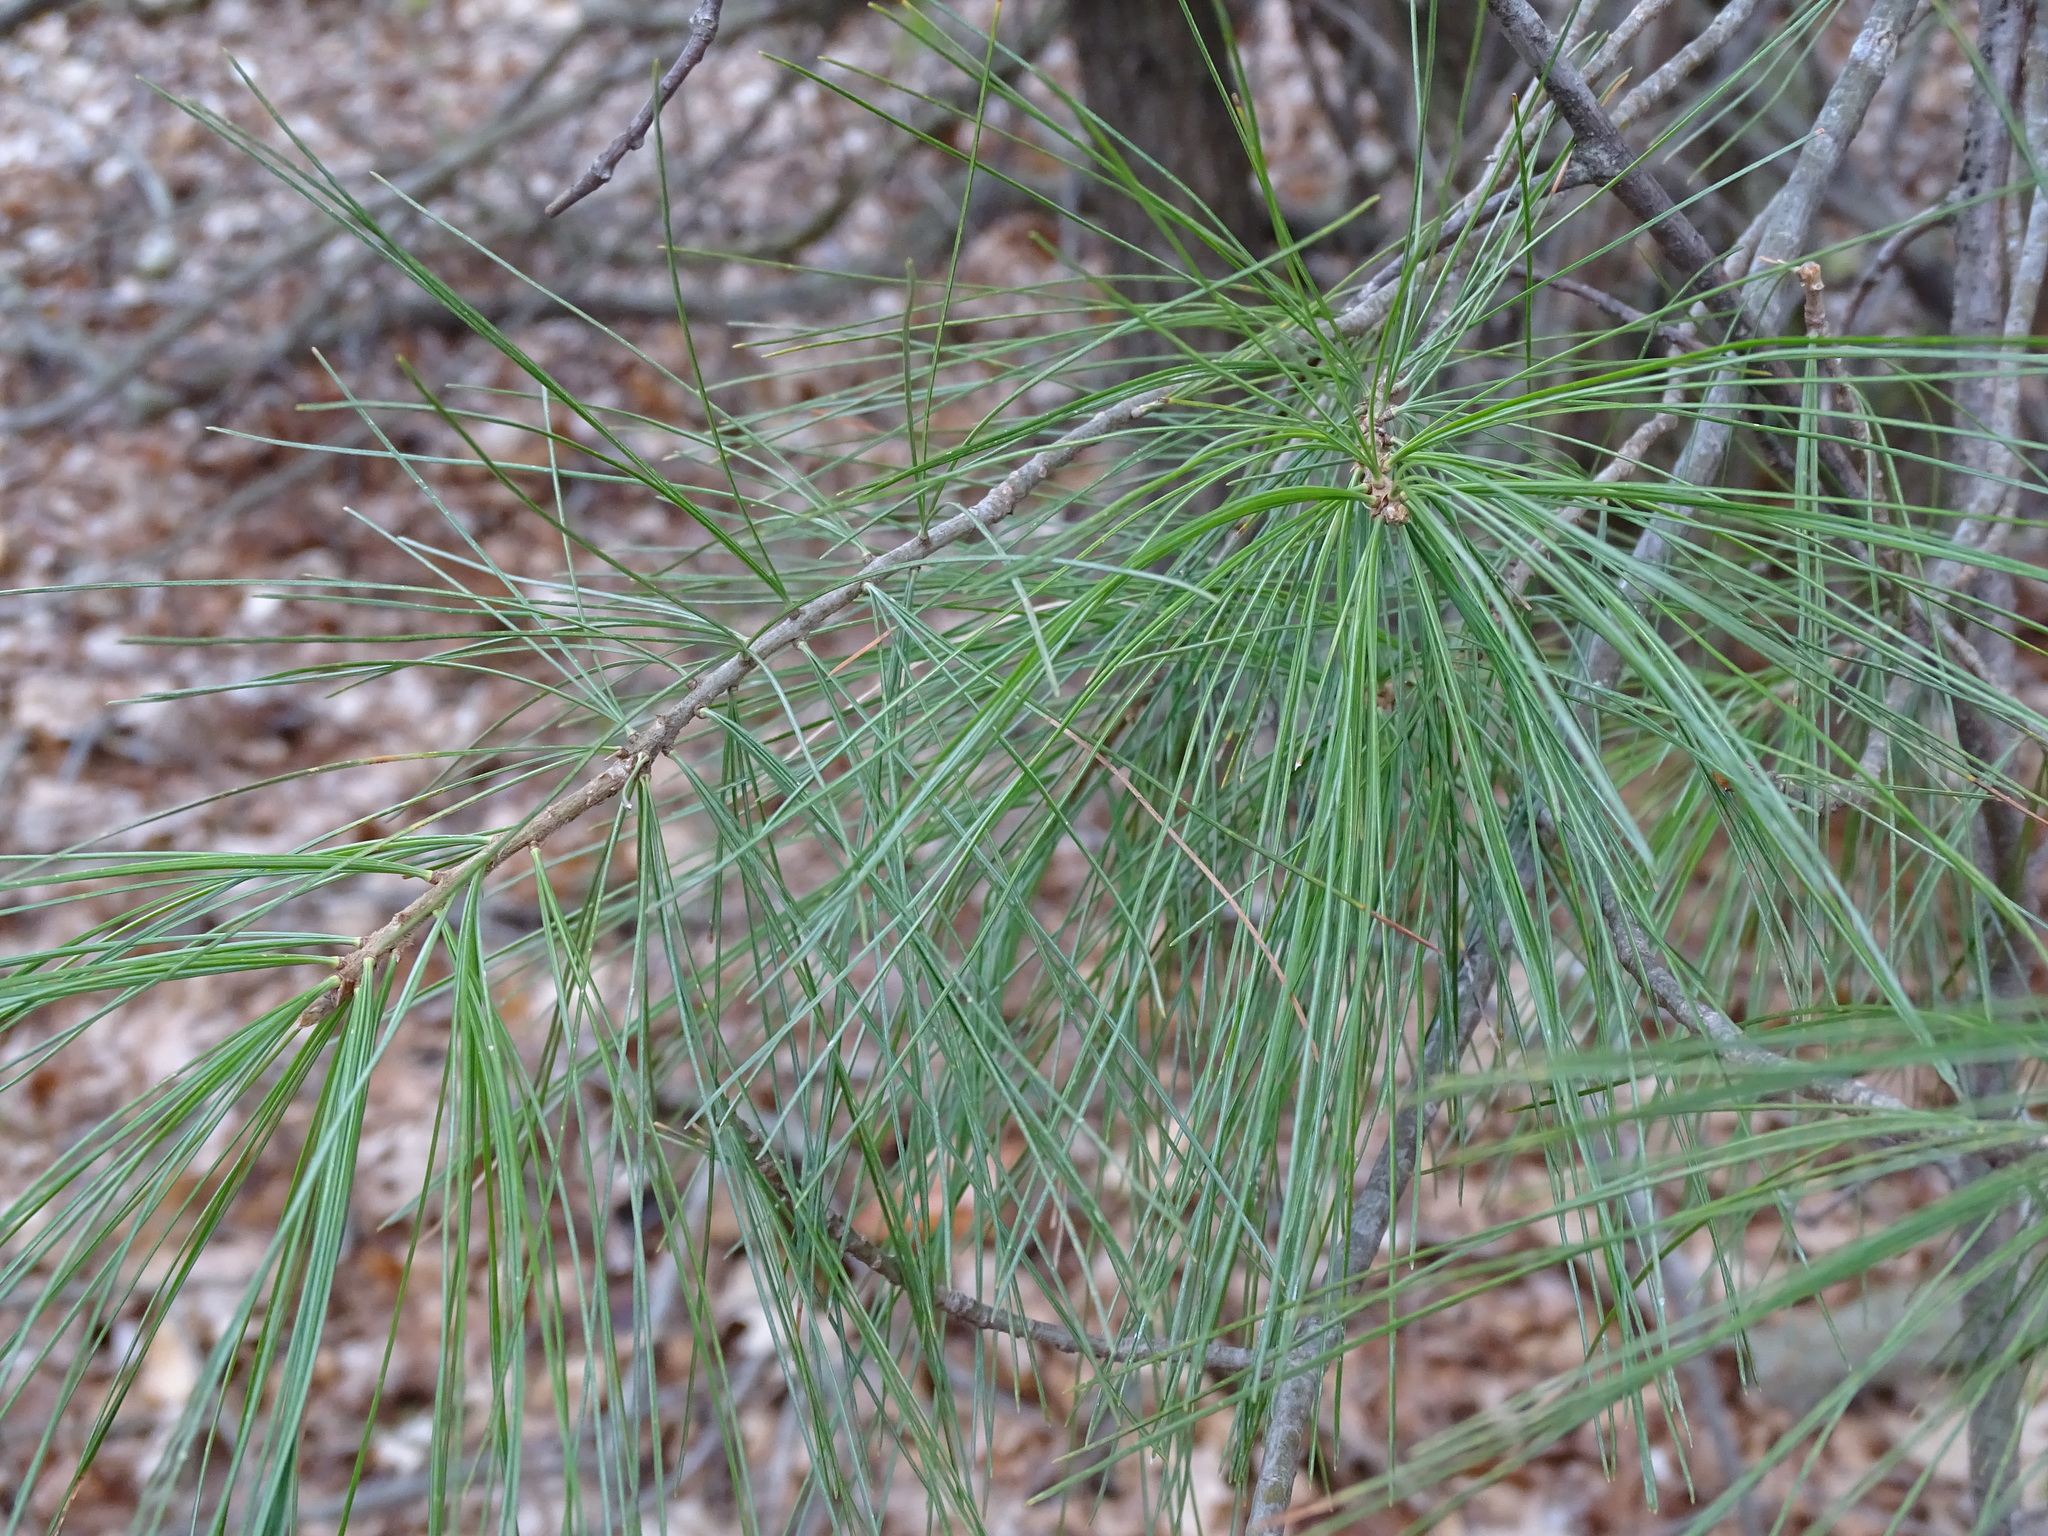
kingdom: Plantae
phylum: Tracheophyta
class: Pinopsida
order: Pinales
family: Pinaceae
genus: Pinus
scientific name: Pinus strobus
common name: Weymouth pine
